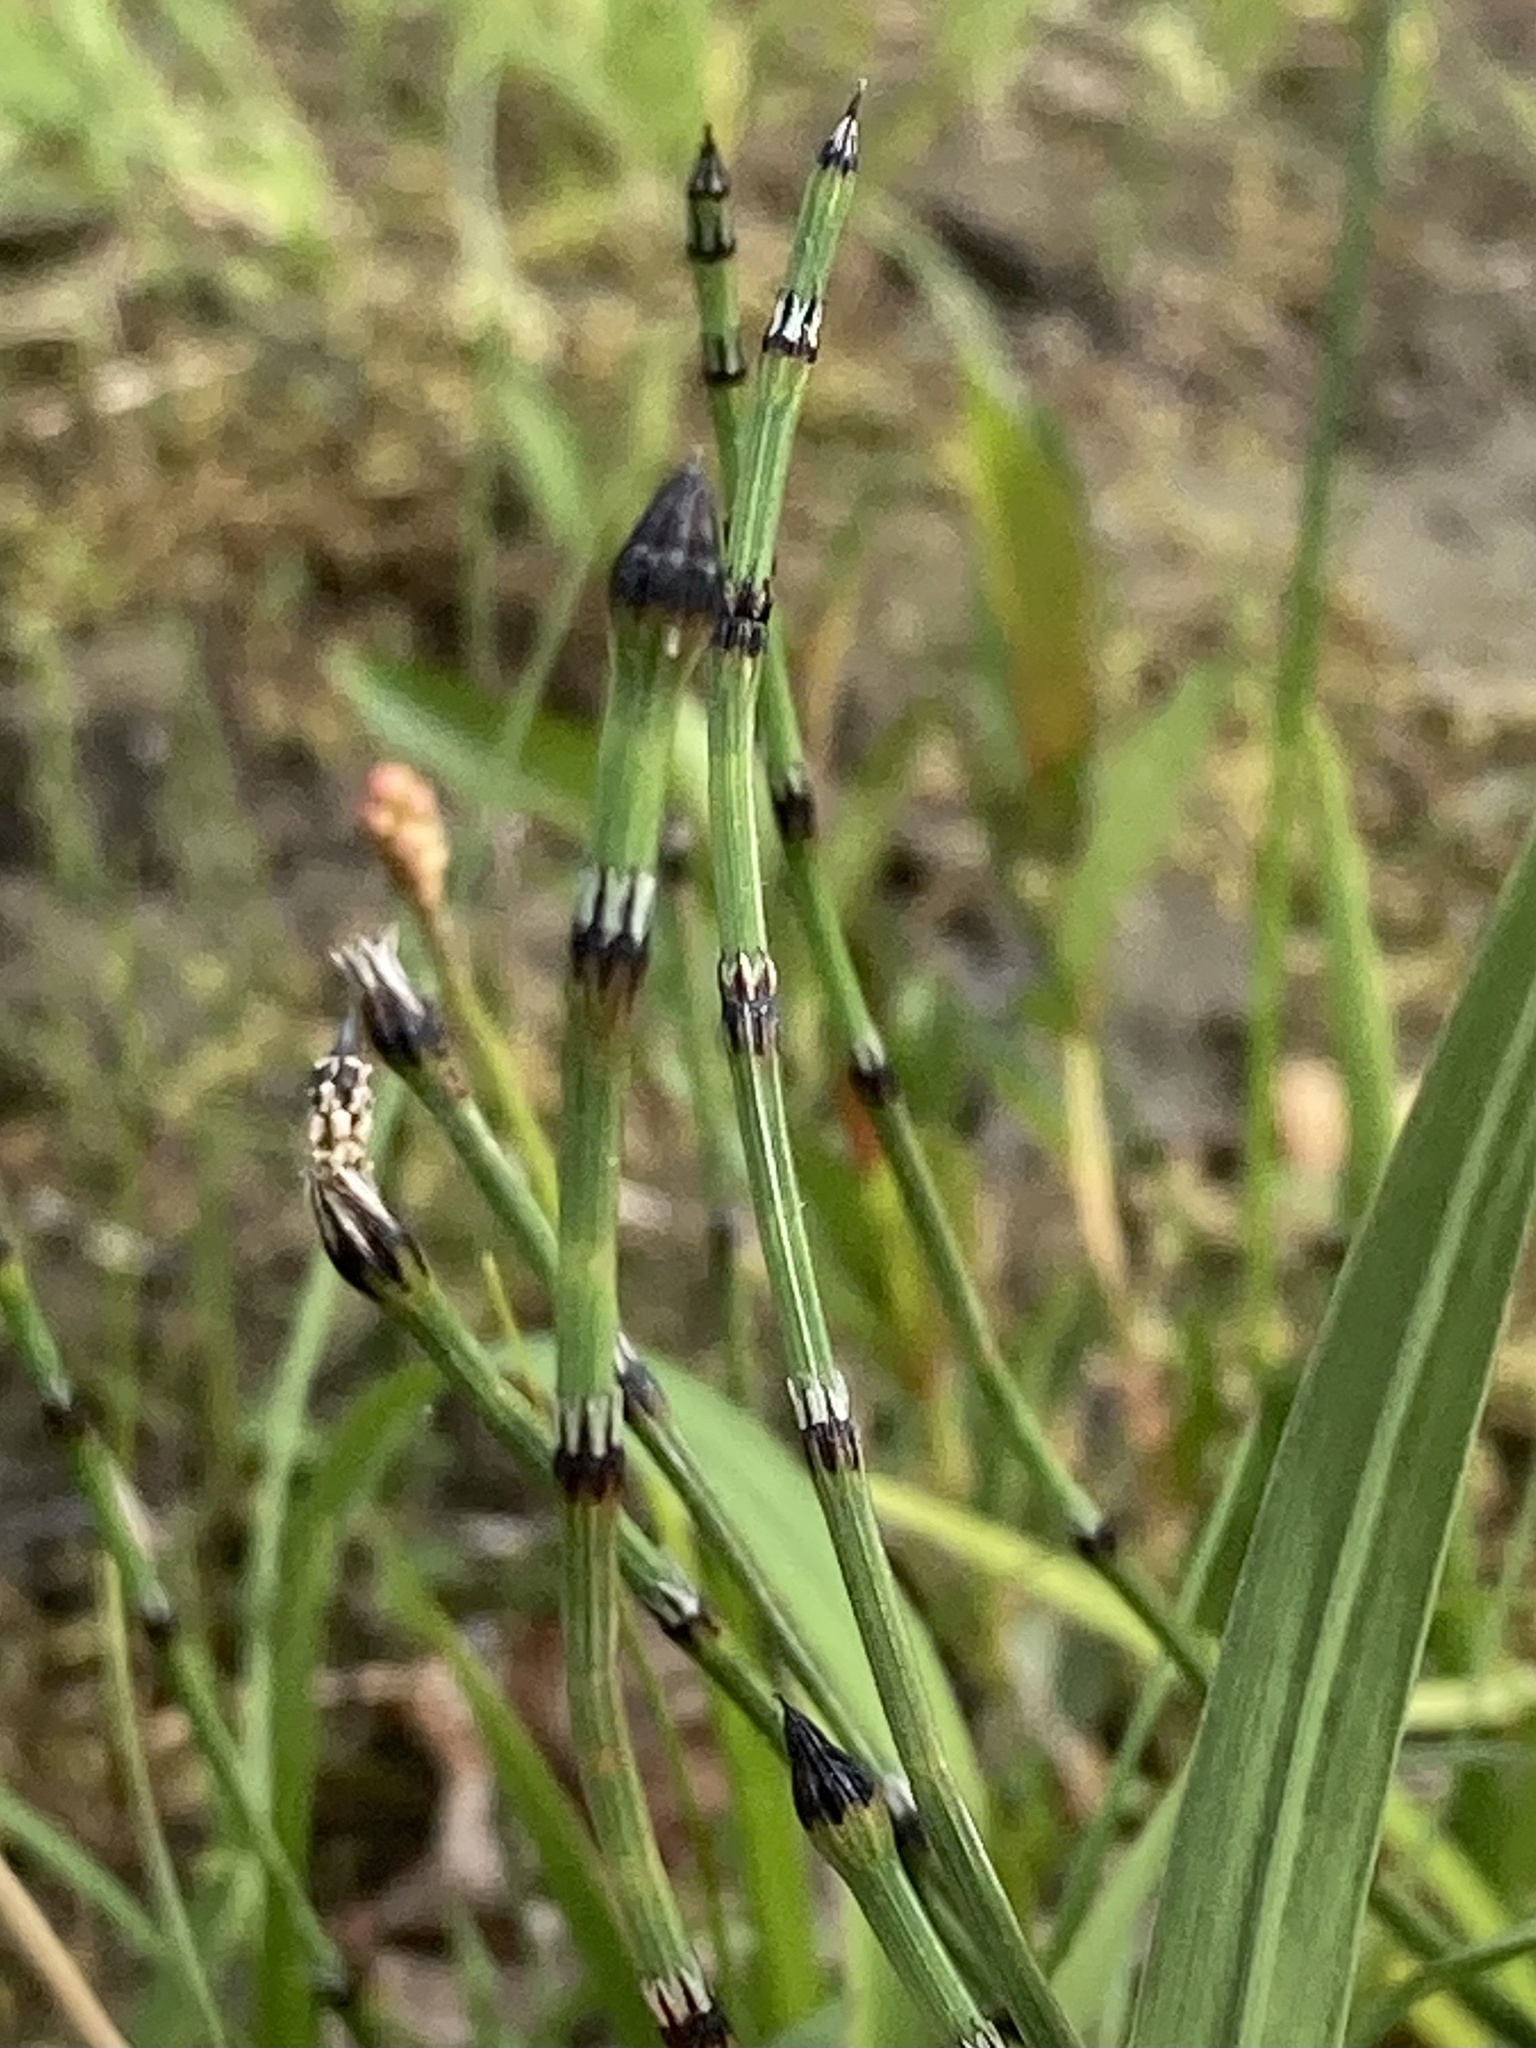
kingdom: Plantae
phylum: Tracheophyta
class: Polypodiopsida
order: Equisetales
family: Equisetaceae
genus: Equisetum
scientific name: Equisetum variegatum
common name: Variegated horsetail
